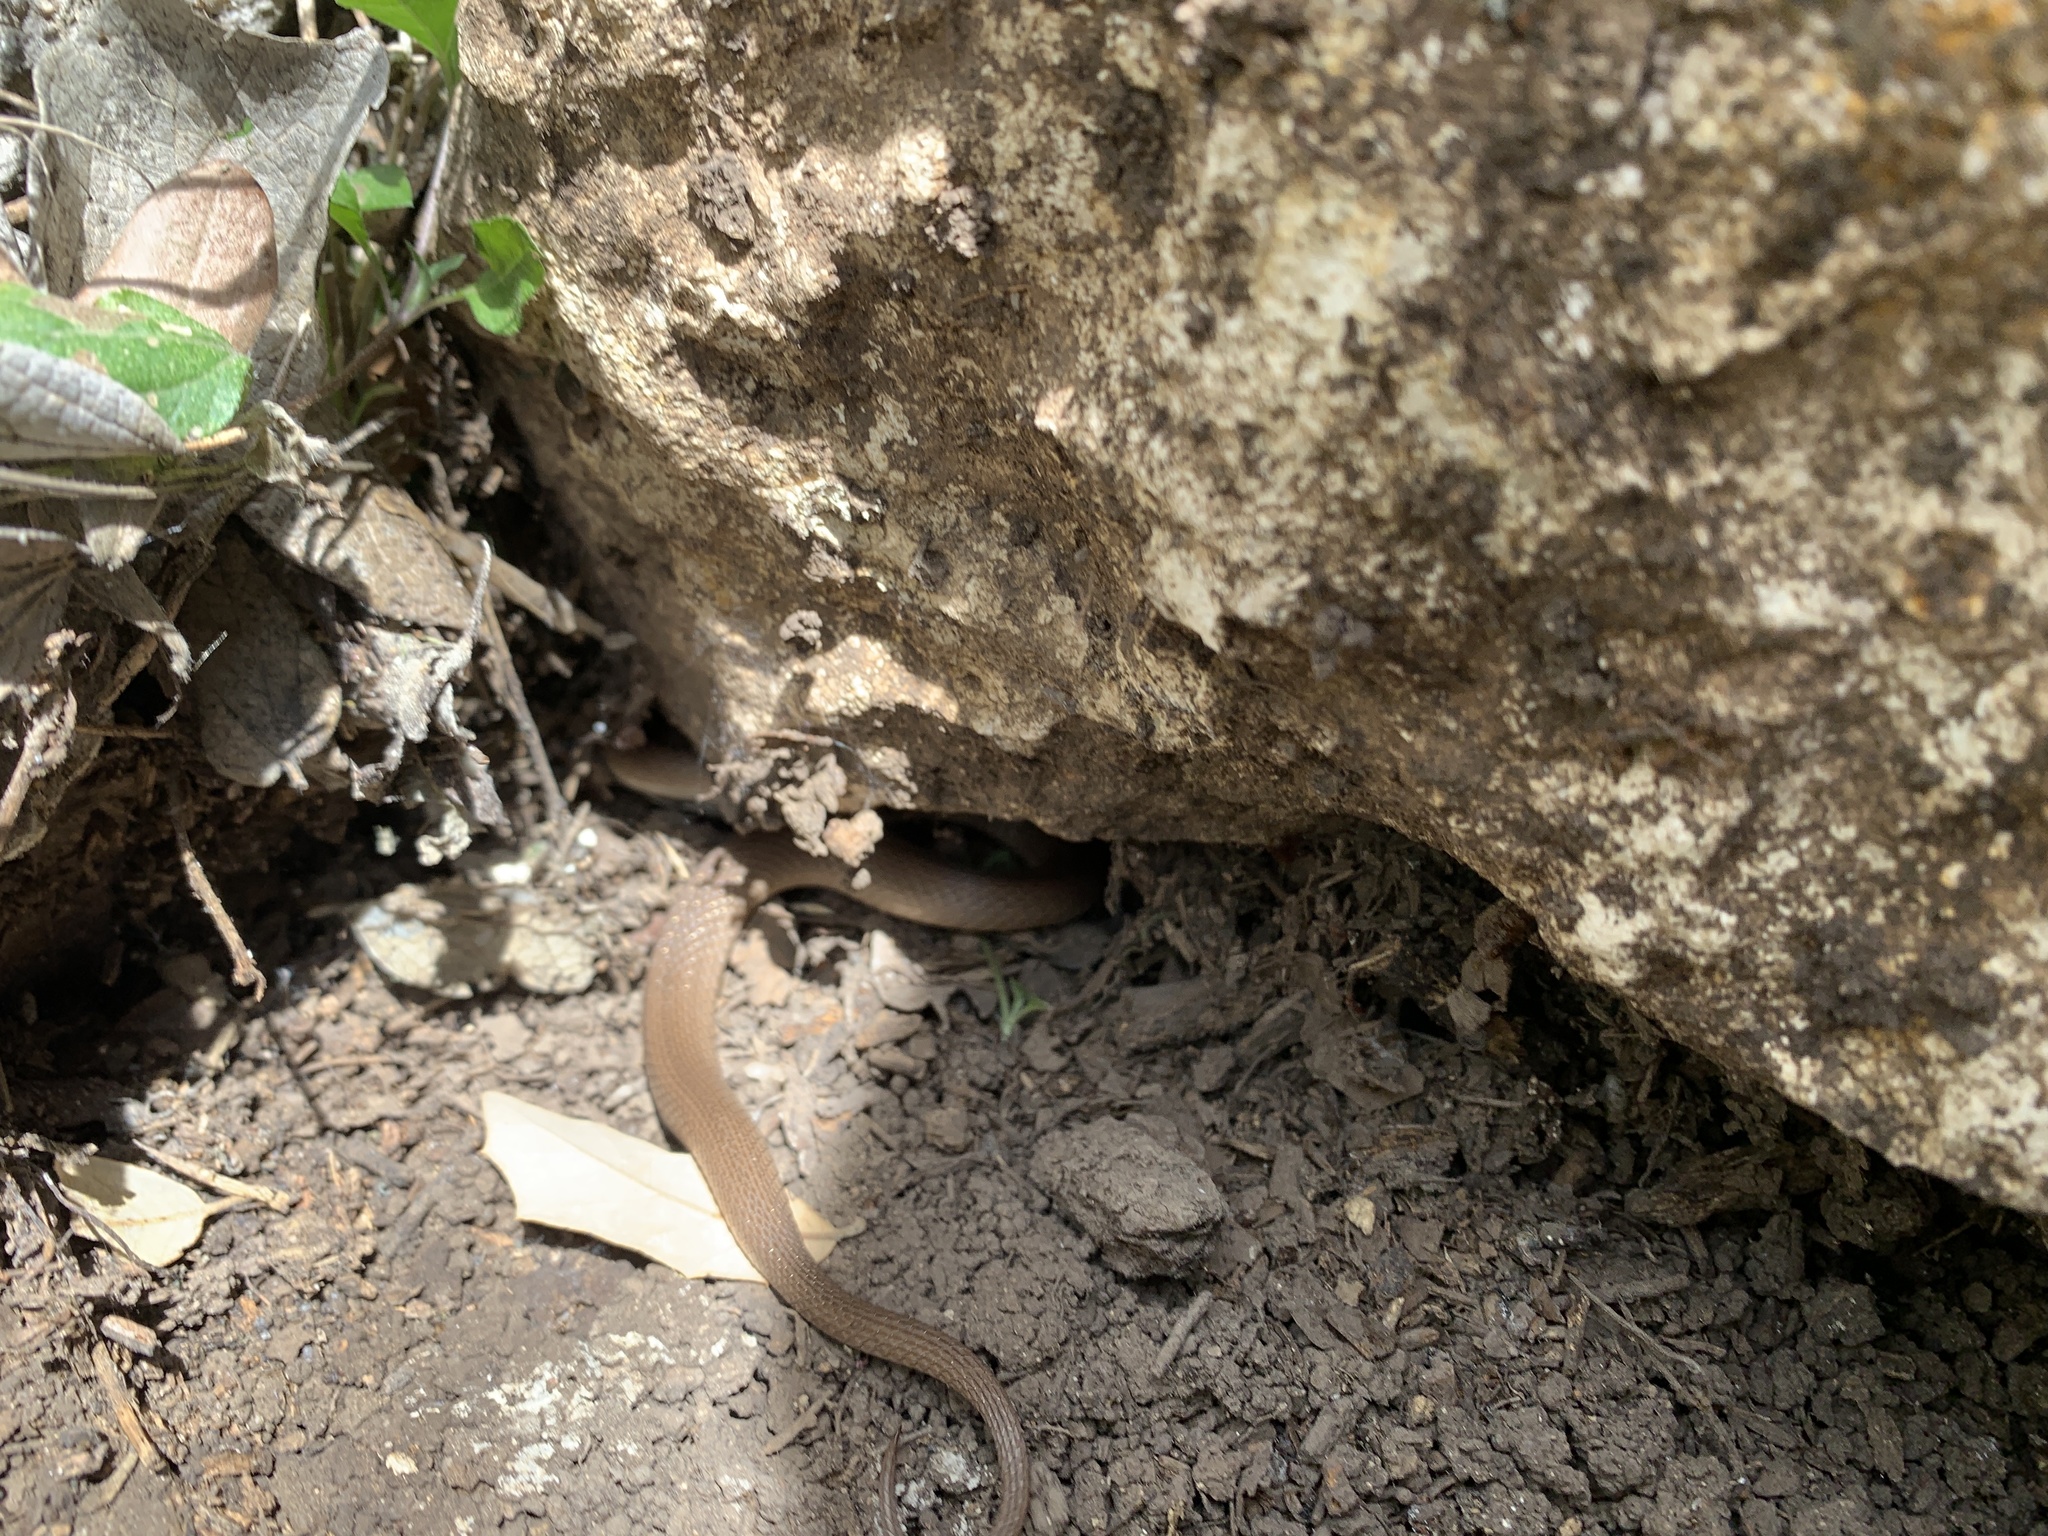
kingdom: Animalia
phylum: Chordata
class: Squamata
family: Colubridae
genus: Haldea
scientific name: Haldea striatula
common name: Rough earth snake
